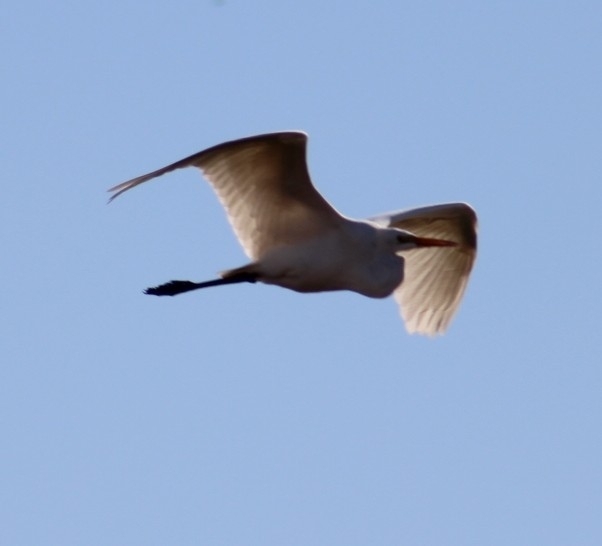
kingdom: Animalia
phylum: Chordata
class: Aves
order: Pelecaniformes
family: Ardeidae
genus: Ardea
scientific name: Ardea alba
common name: Great egret
